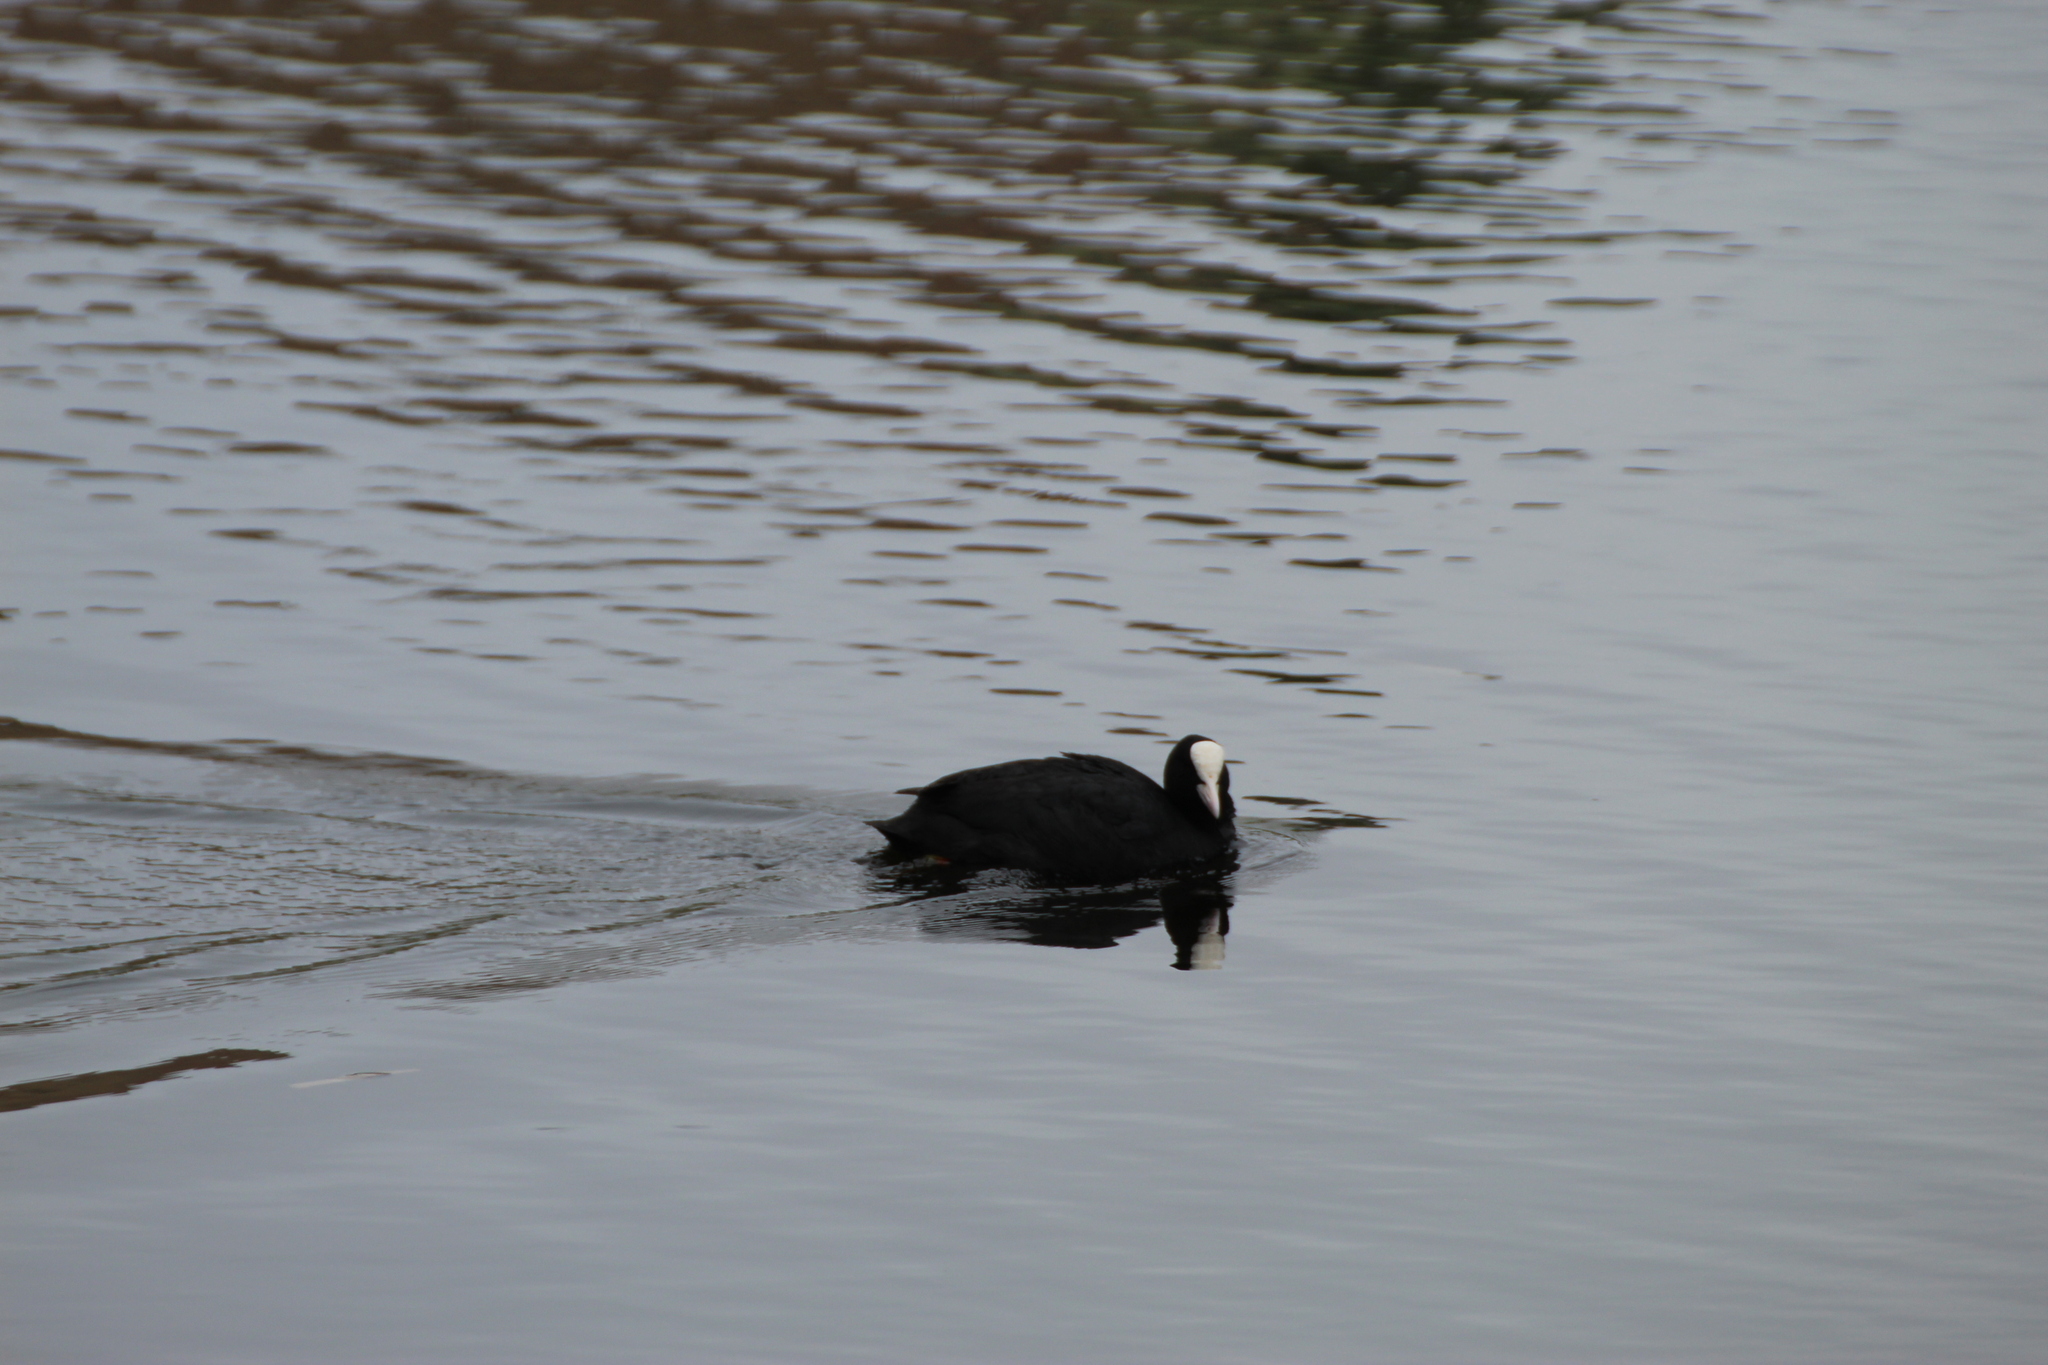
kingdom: Animalia
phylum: Chordata
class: Aves
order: Gruiformes
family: Rallidae
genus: Fulica
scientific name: Fulica atra
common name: Eurasian coot
